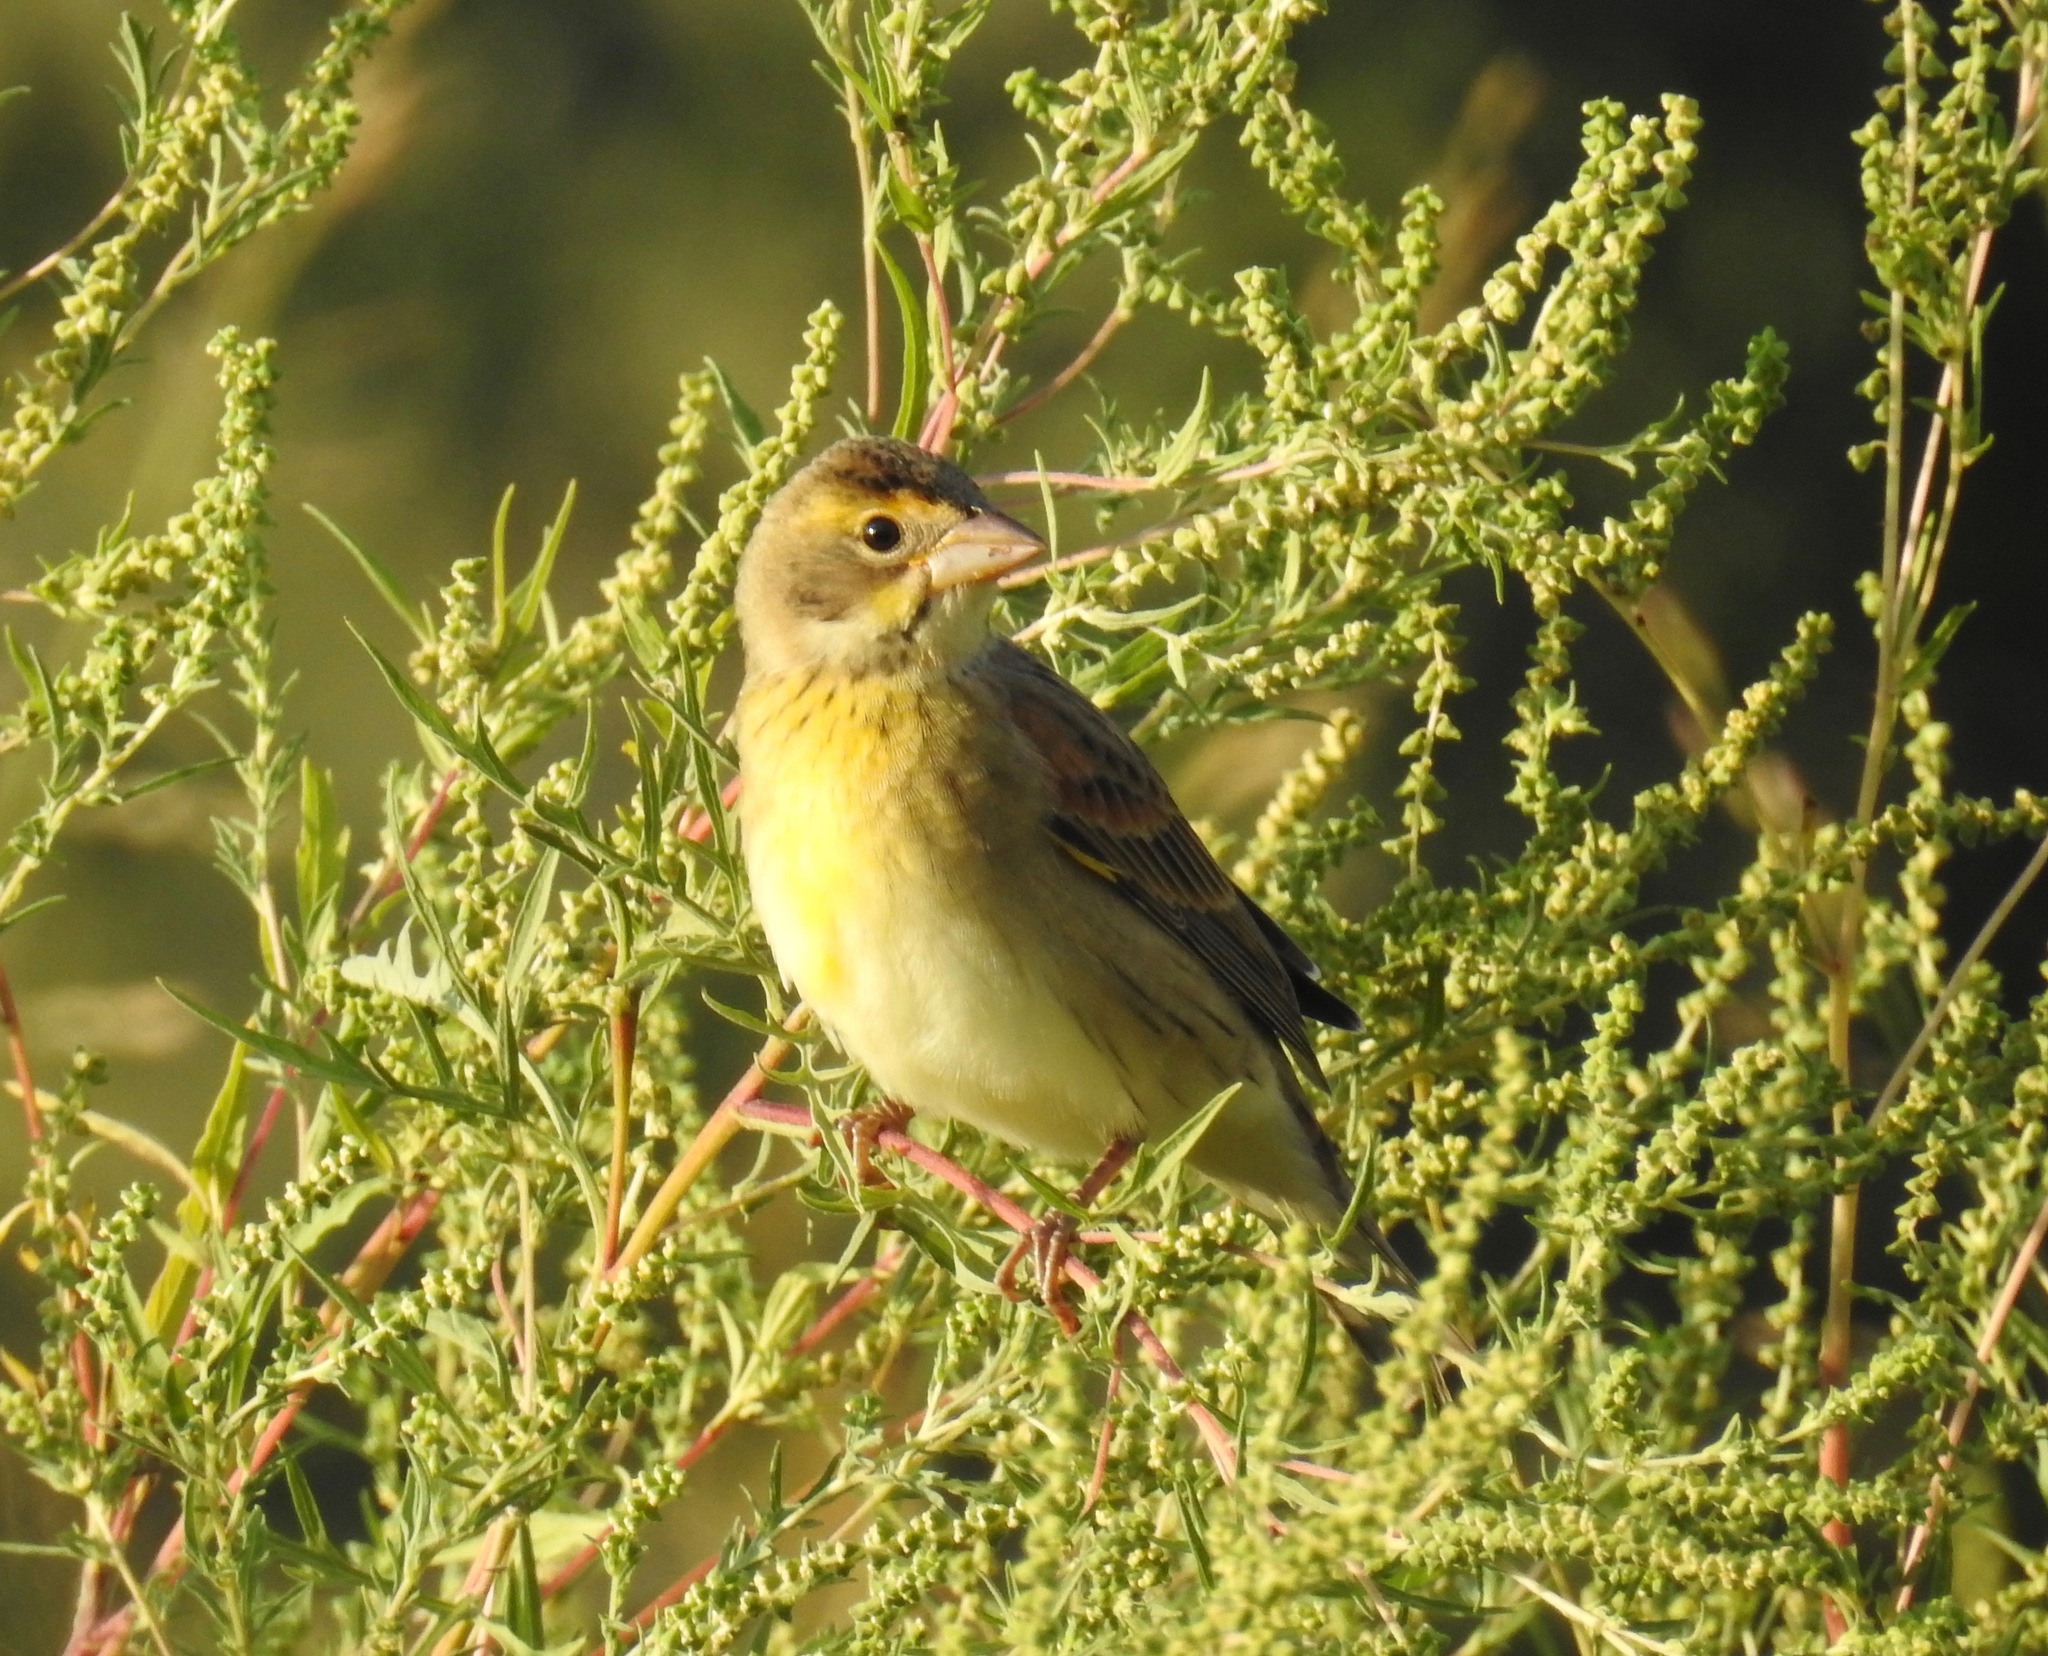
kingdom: Animalia
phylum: Chordata
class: Aves
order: Passeriformes
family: Cardinalidae
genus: Spiza
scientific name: Spiza americana
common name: Dickcissel
